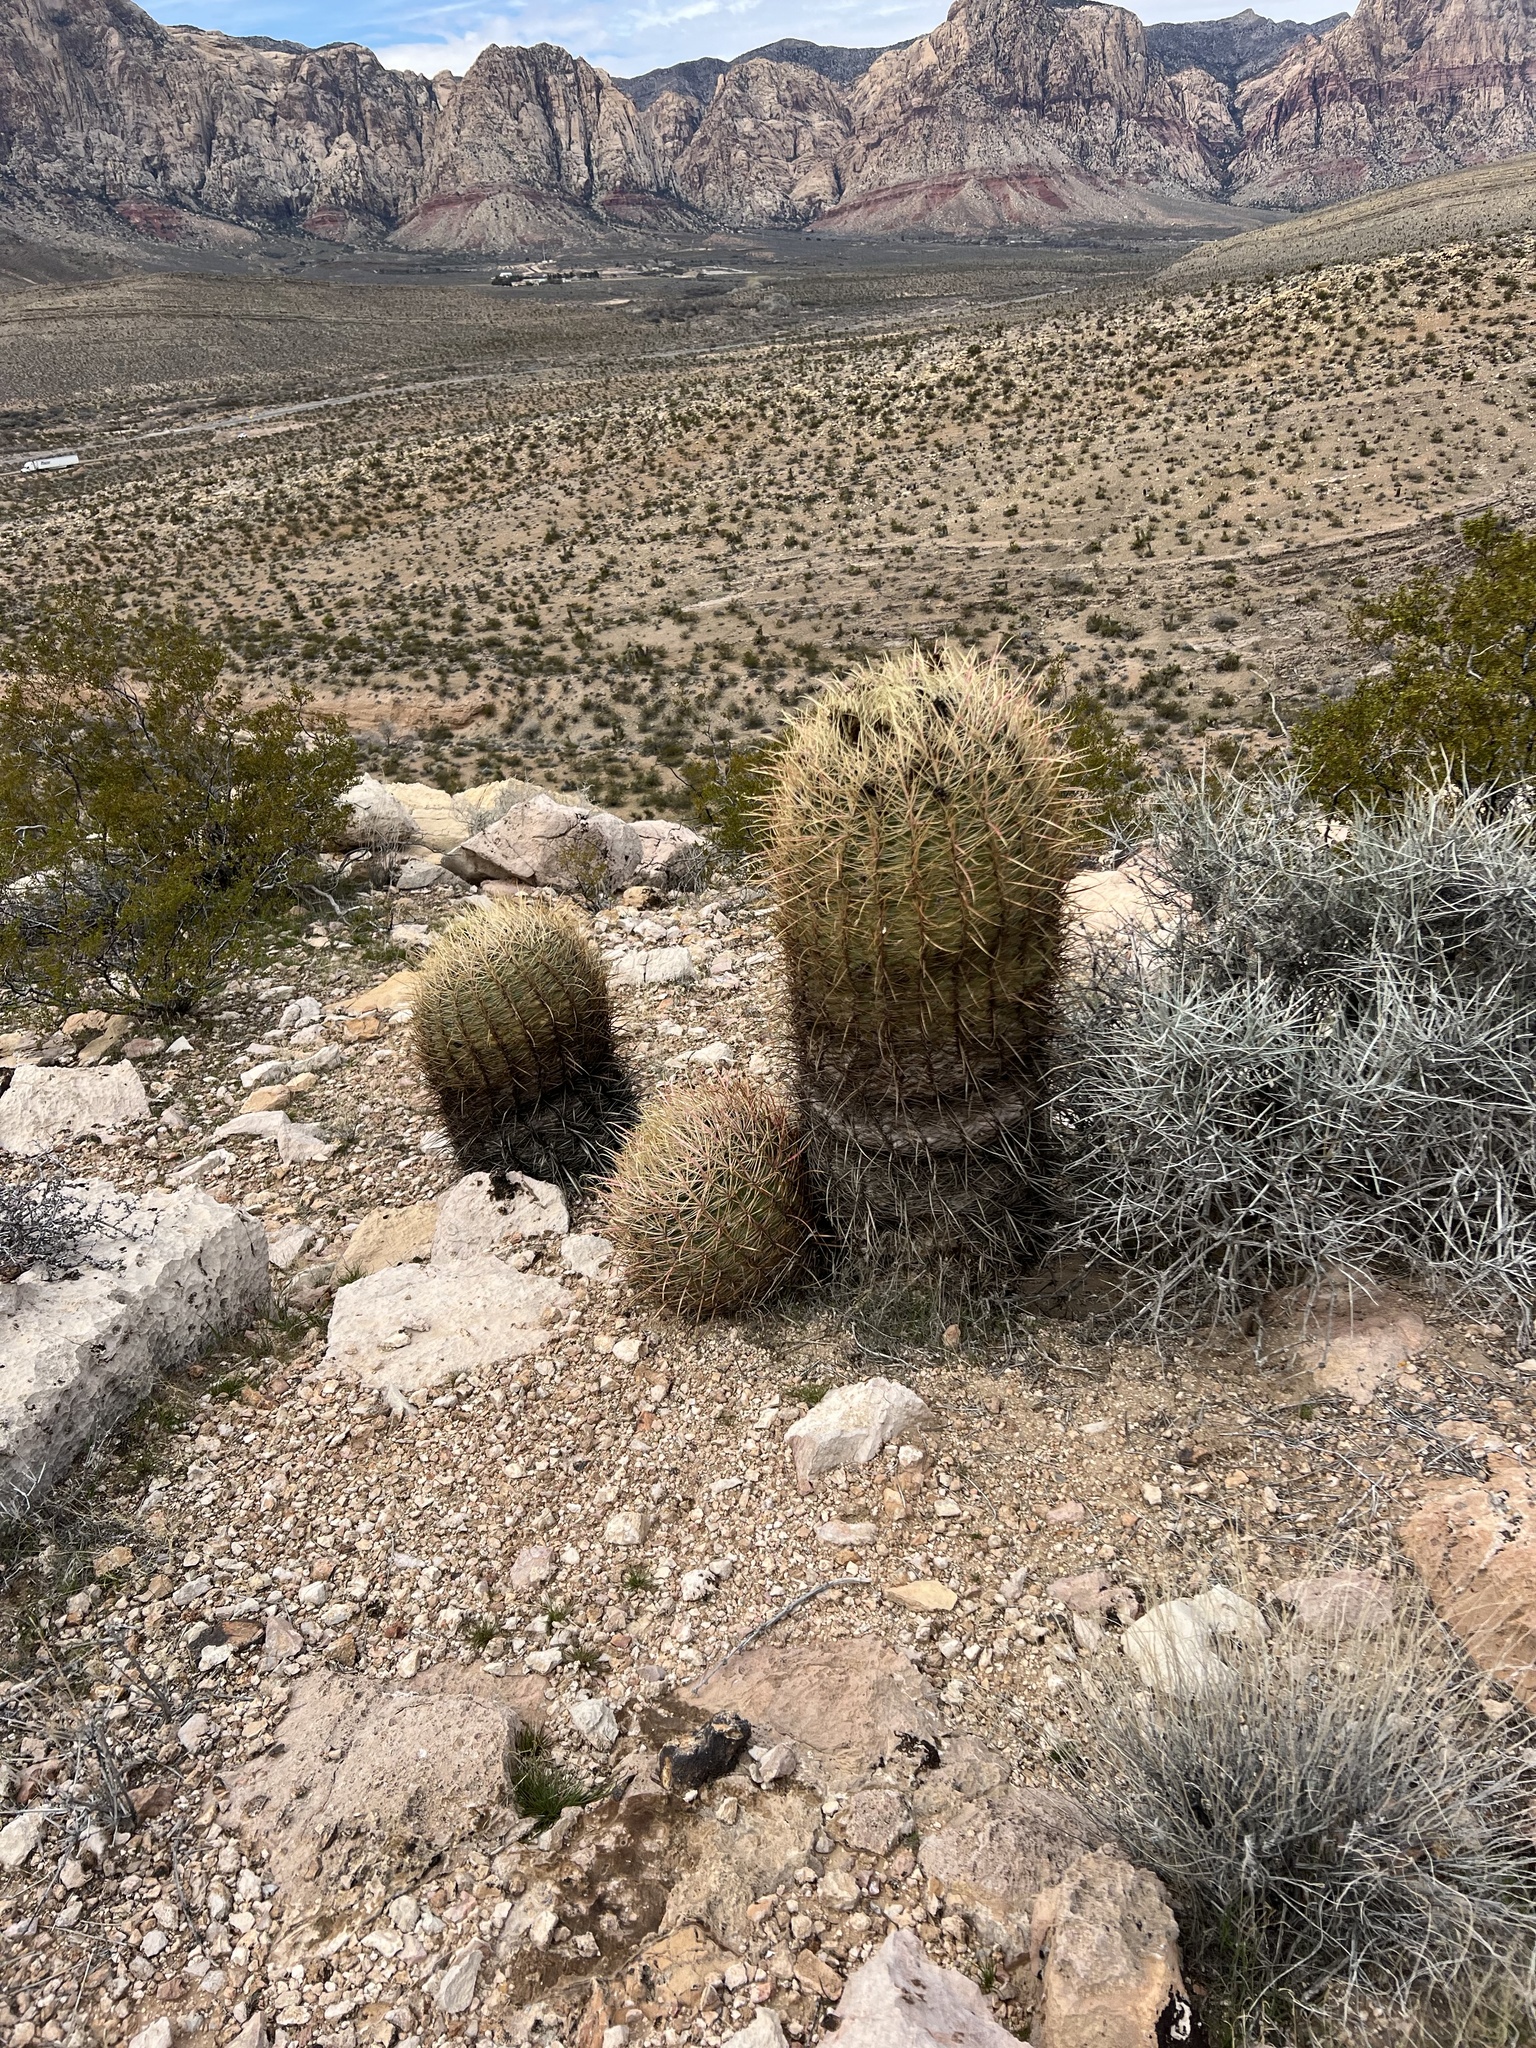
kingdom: Plantae
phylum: Tracheophyta
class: Magnoliopsida
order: Caryophyllales
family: Cactaceae
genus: Ferocactus
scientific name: Ferocactus cylindraceus
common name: California barrel cactus
